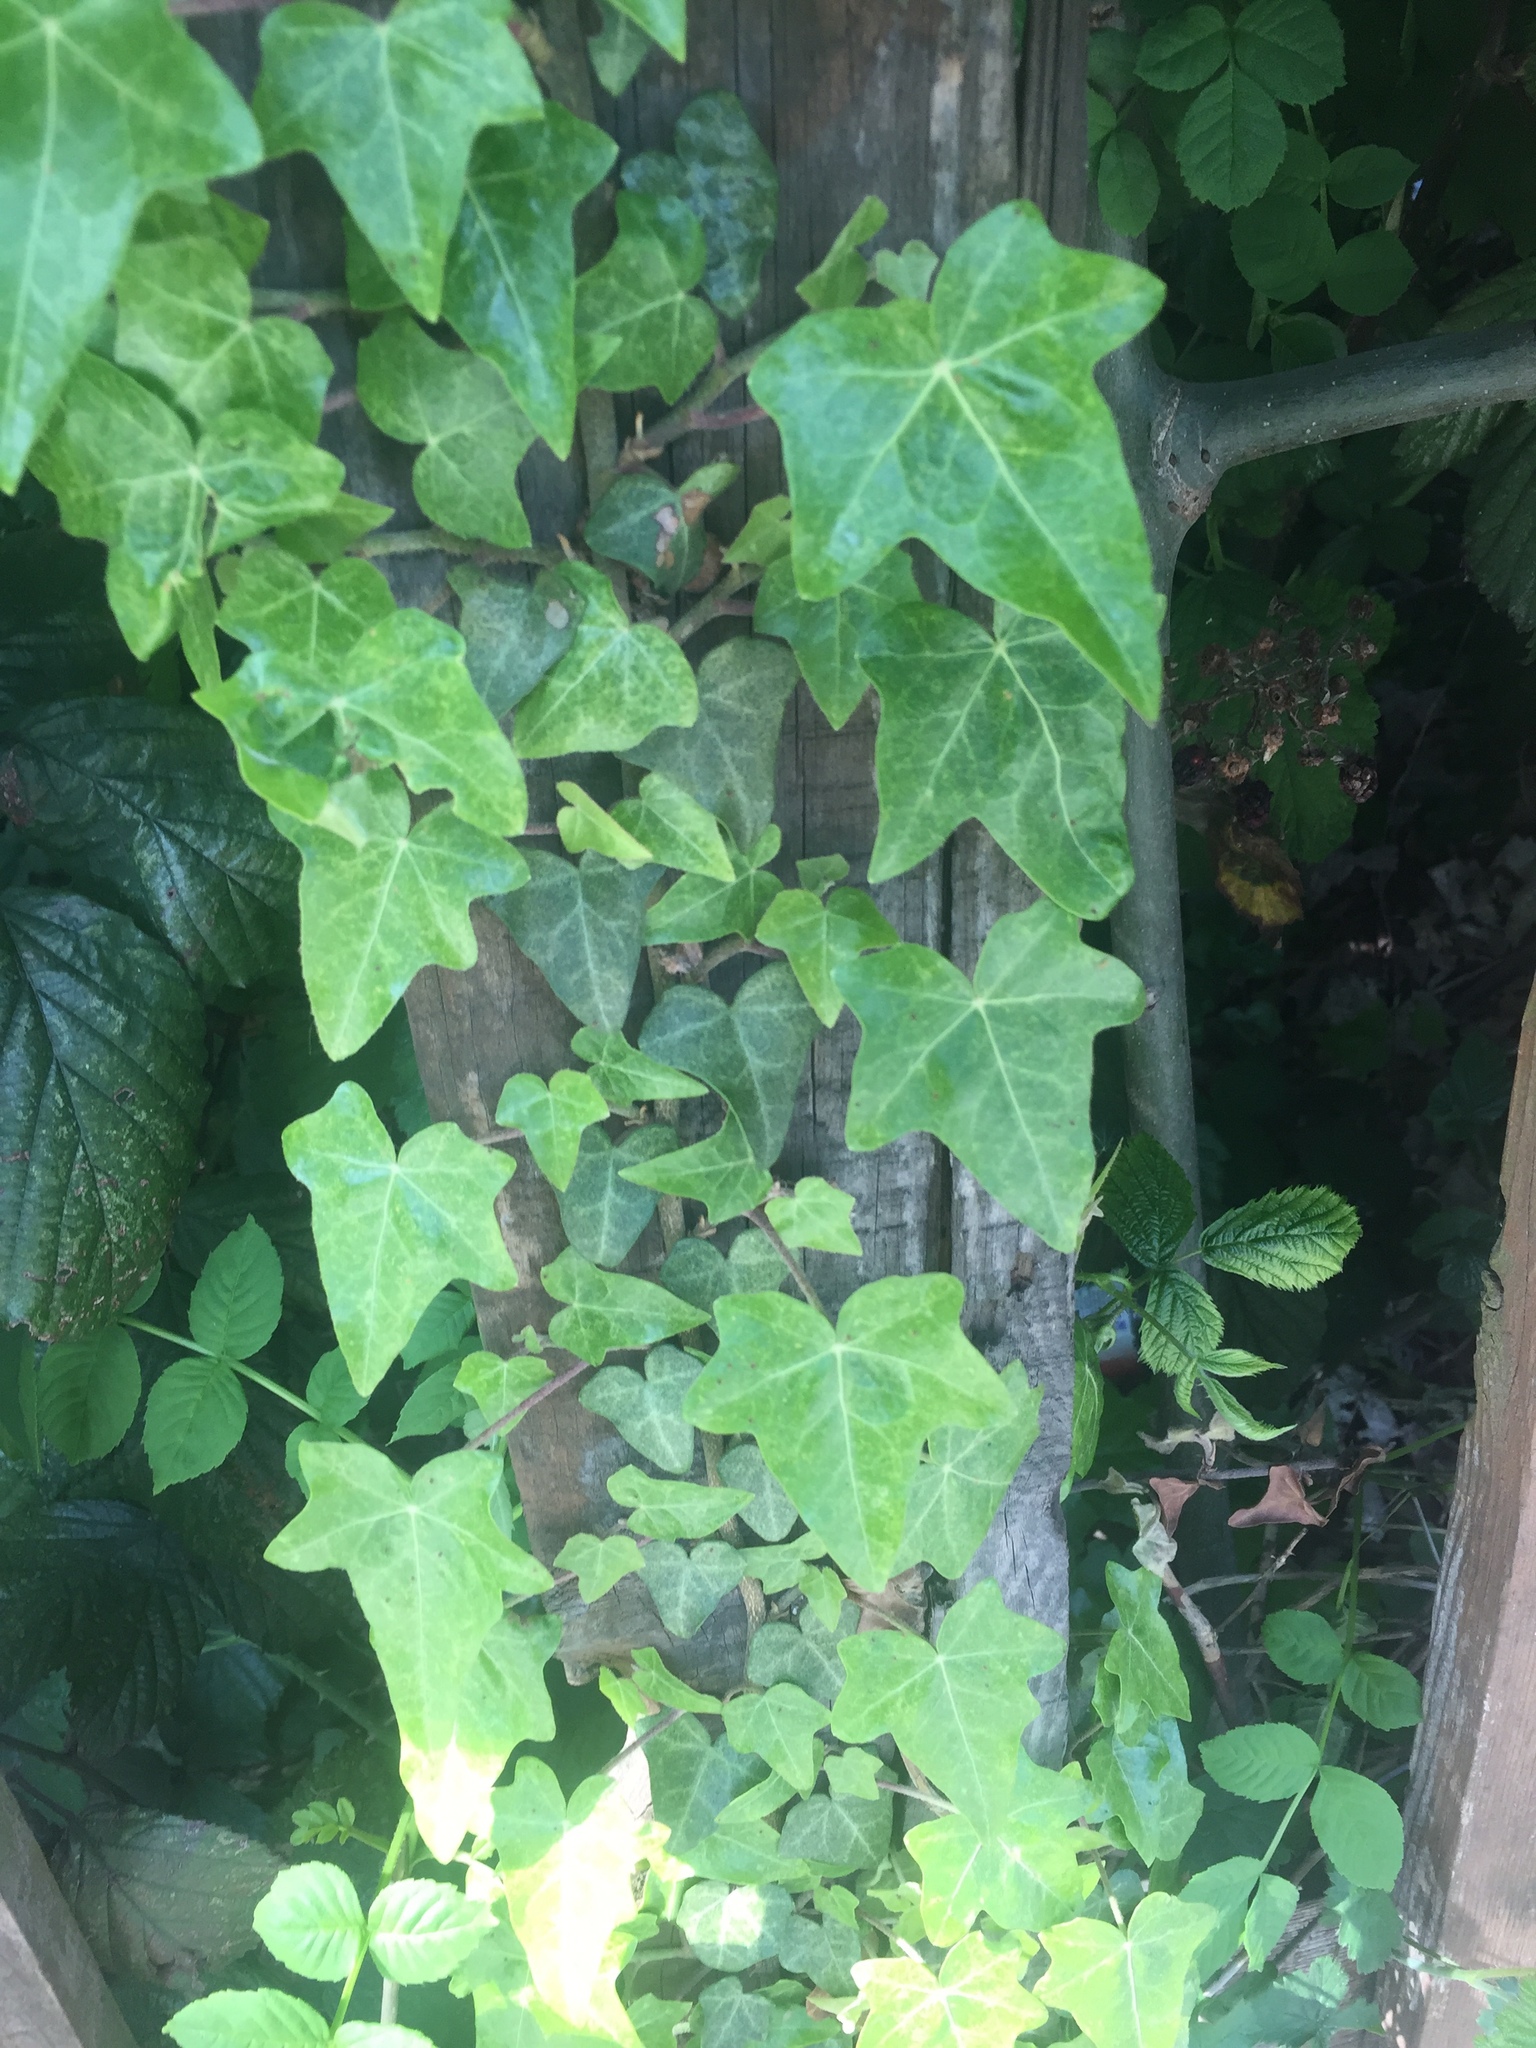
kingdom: Plantae
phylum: Tracheophyta
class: Magnoliopsida
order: Apiales
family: Araliaceae
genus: Hedera
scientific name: Hedera helix
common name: Ivy
